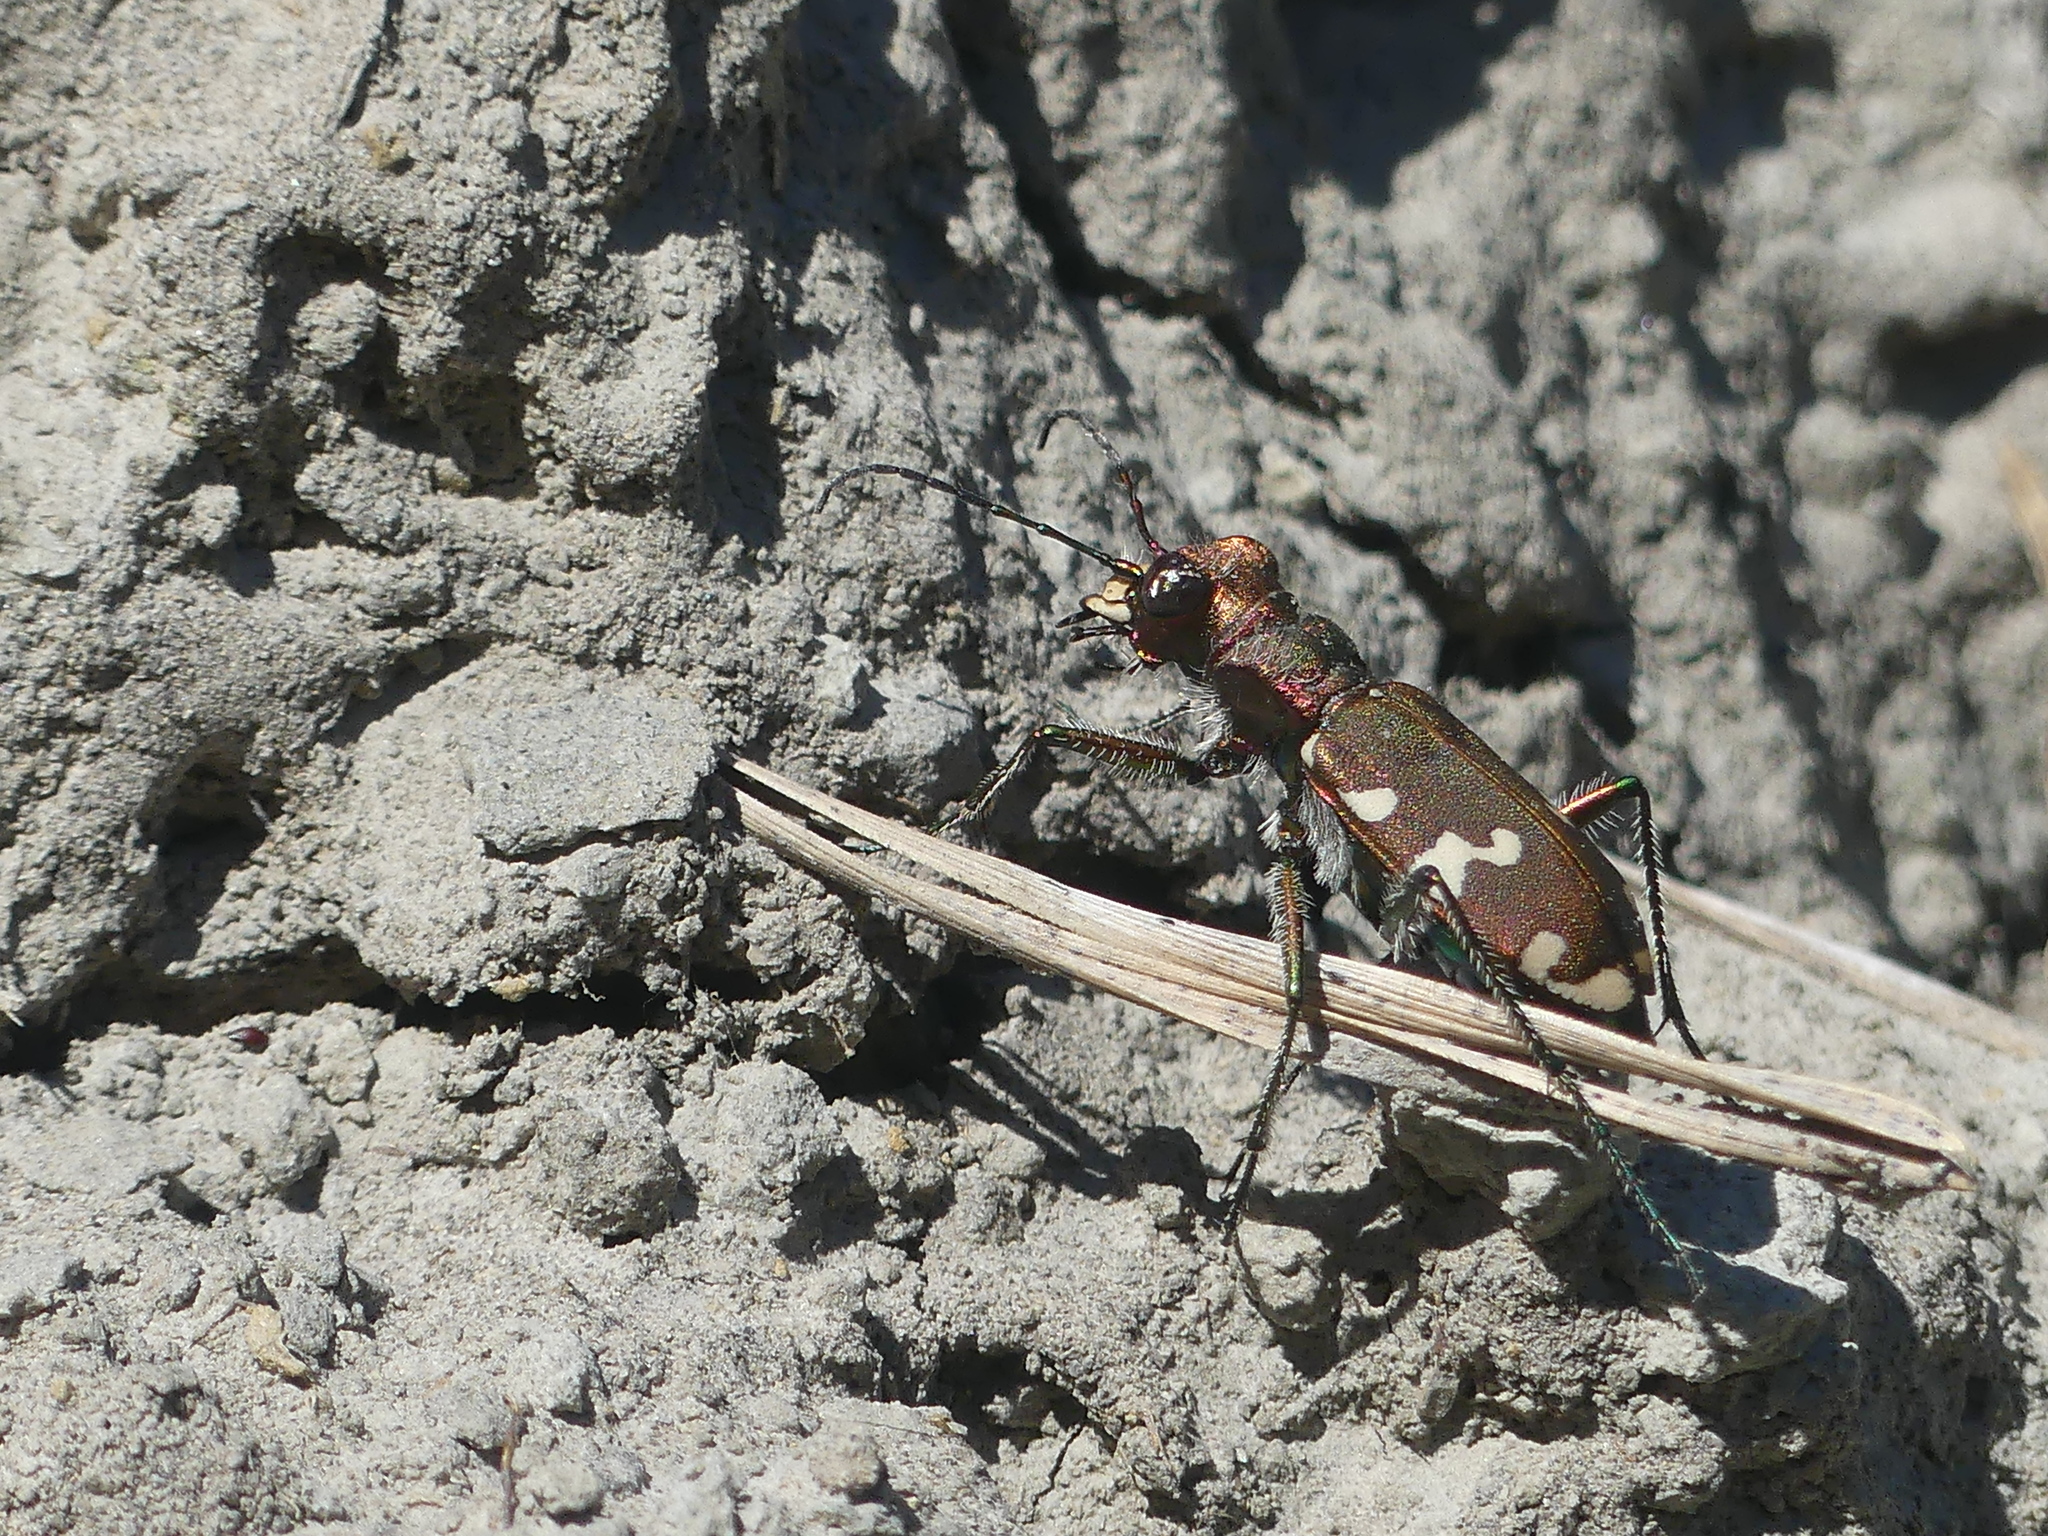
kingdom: Animalia
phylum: Arthropoda
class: Insecta
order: Coleoptera
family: Carabidae
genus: Cicindela
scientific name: Cicindela sylvicola
